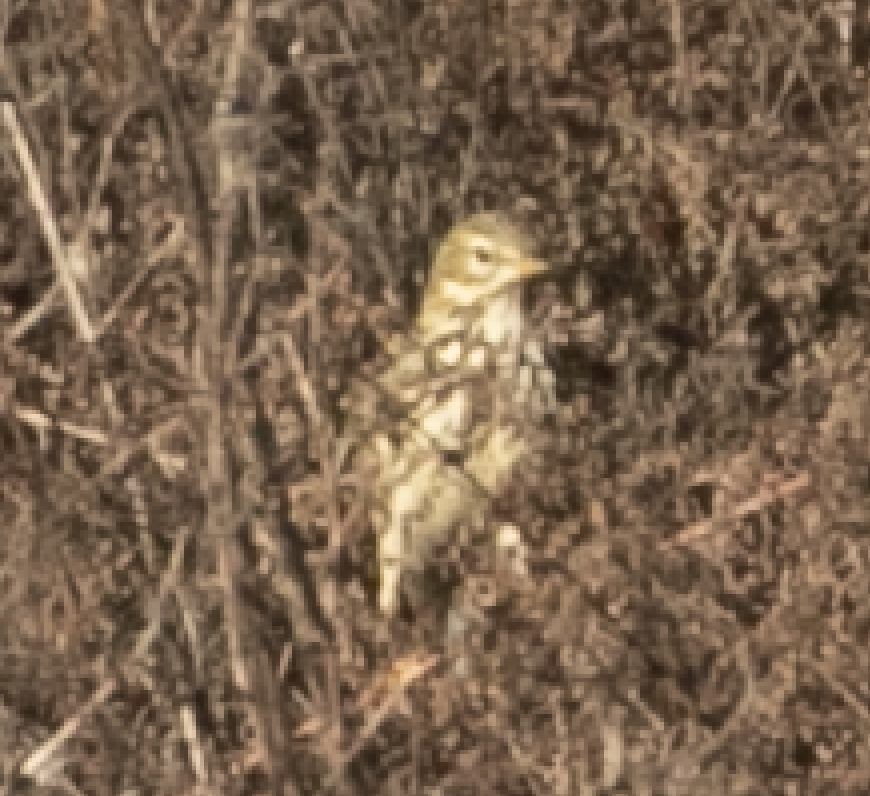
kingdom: Animalia
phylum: Chordata
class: Aves
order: Passeriformes
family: Motacillidae
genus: Anthus
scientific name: Anthus pratensis
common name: Meadow pipit
